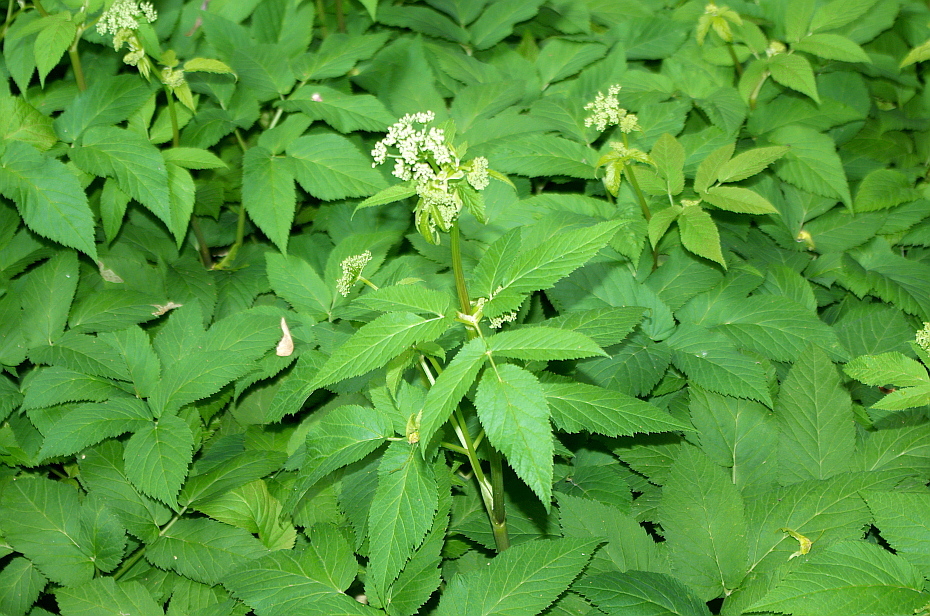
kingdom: Plantae
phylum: Tracheophyta
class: Magnoliopsida
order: Apiales
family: Apiaceae
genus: Aegopodium
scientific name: Aegopodium podagraria
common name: Ground-elder
